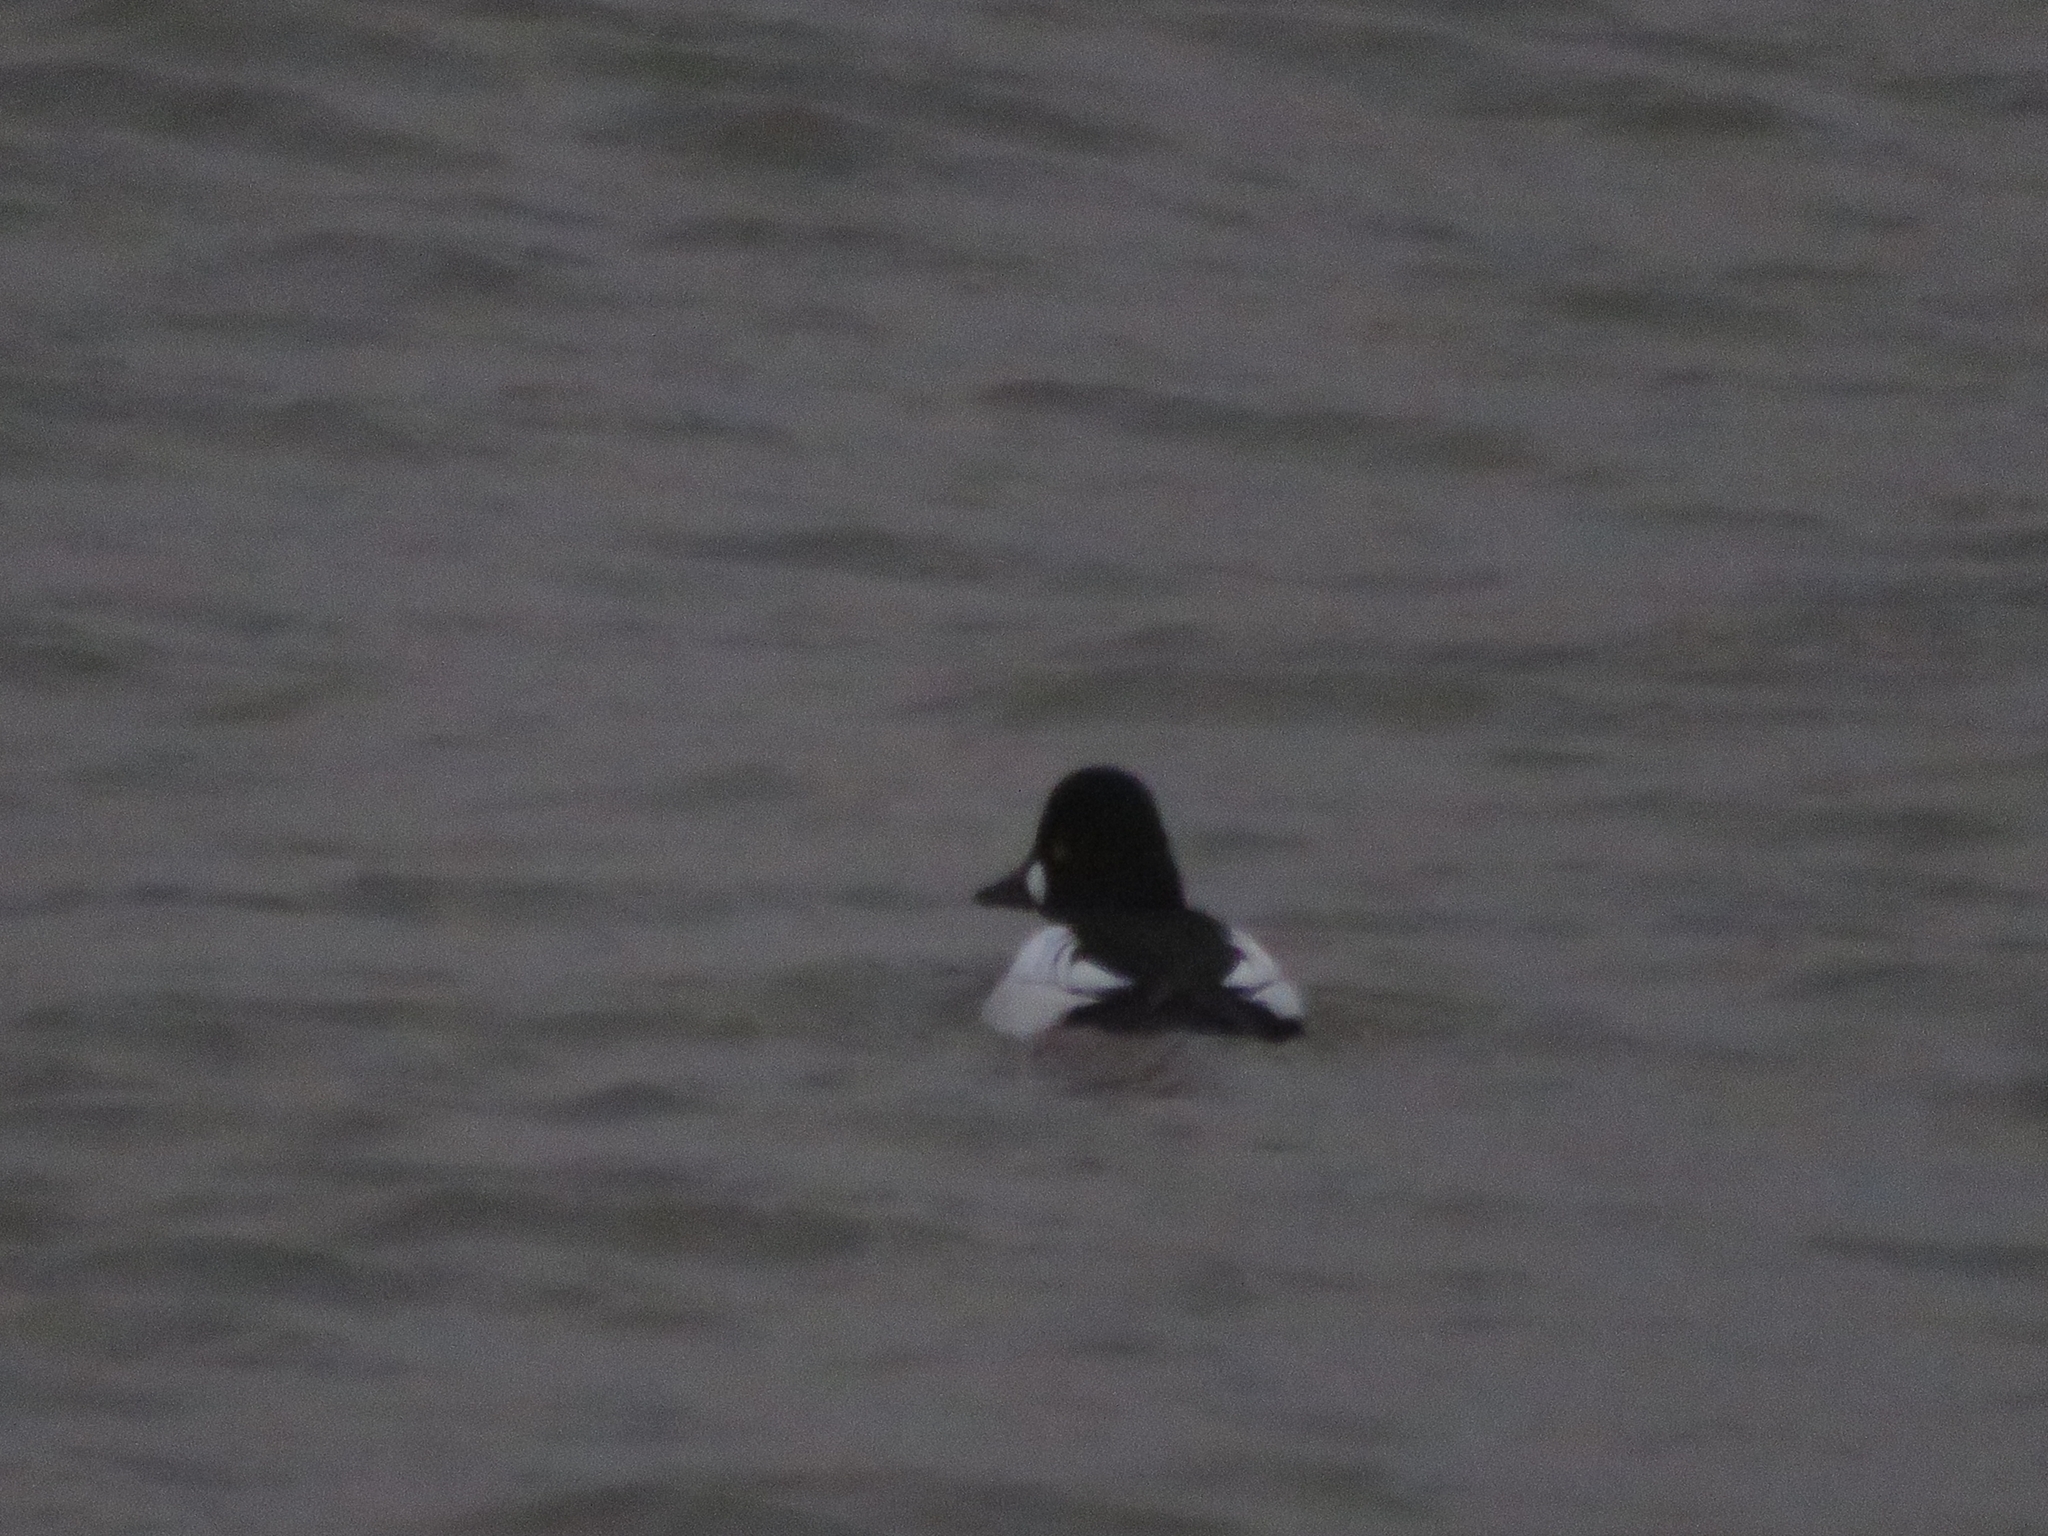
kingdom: Animalia
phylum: Chordata
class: Aves
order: Anseriformes
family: Anatidae
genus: Bucephala
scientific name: Bucephala clangula
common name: Common goldeneye
